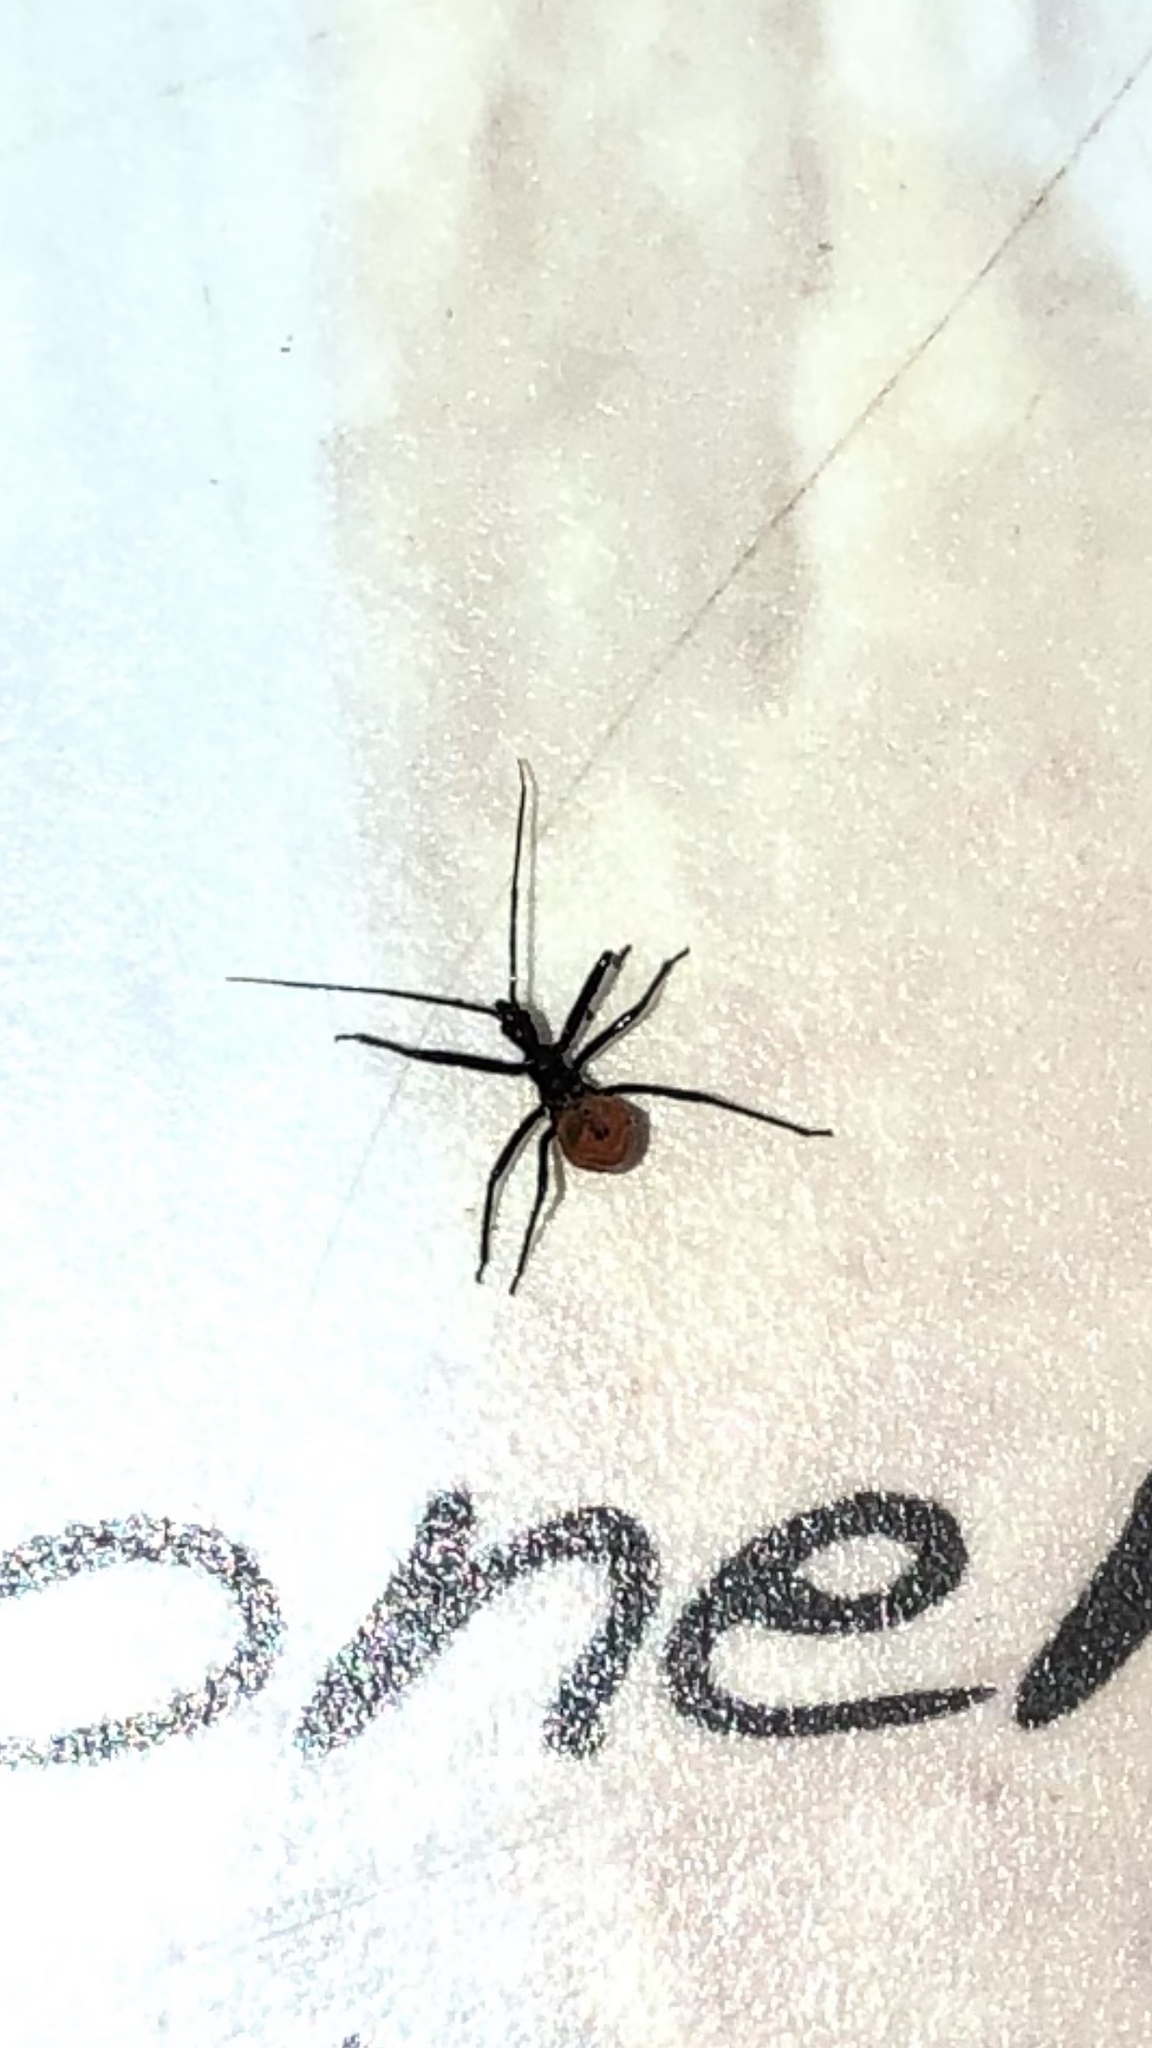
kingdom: Animalia
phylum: Arthropoda
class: Insecta
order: Hemiptera
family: Reduviidae
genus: Arilus
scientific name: Arilus cristatus
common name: North american wheel bug
